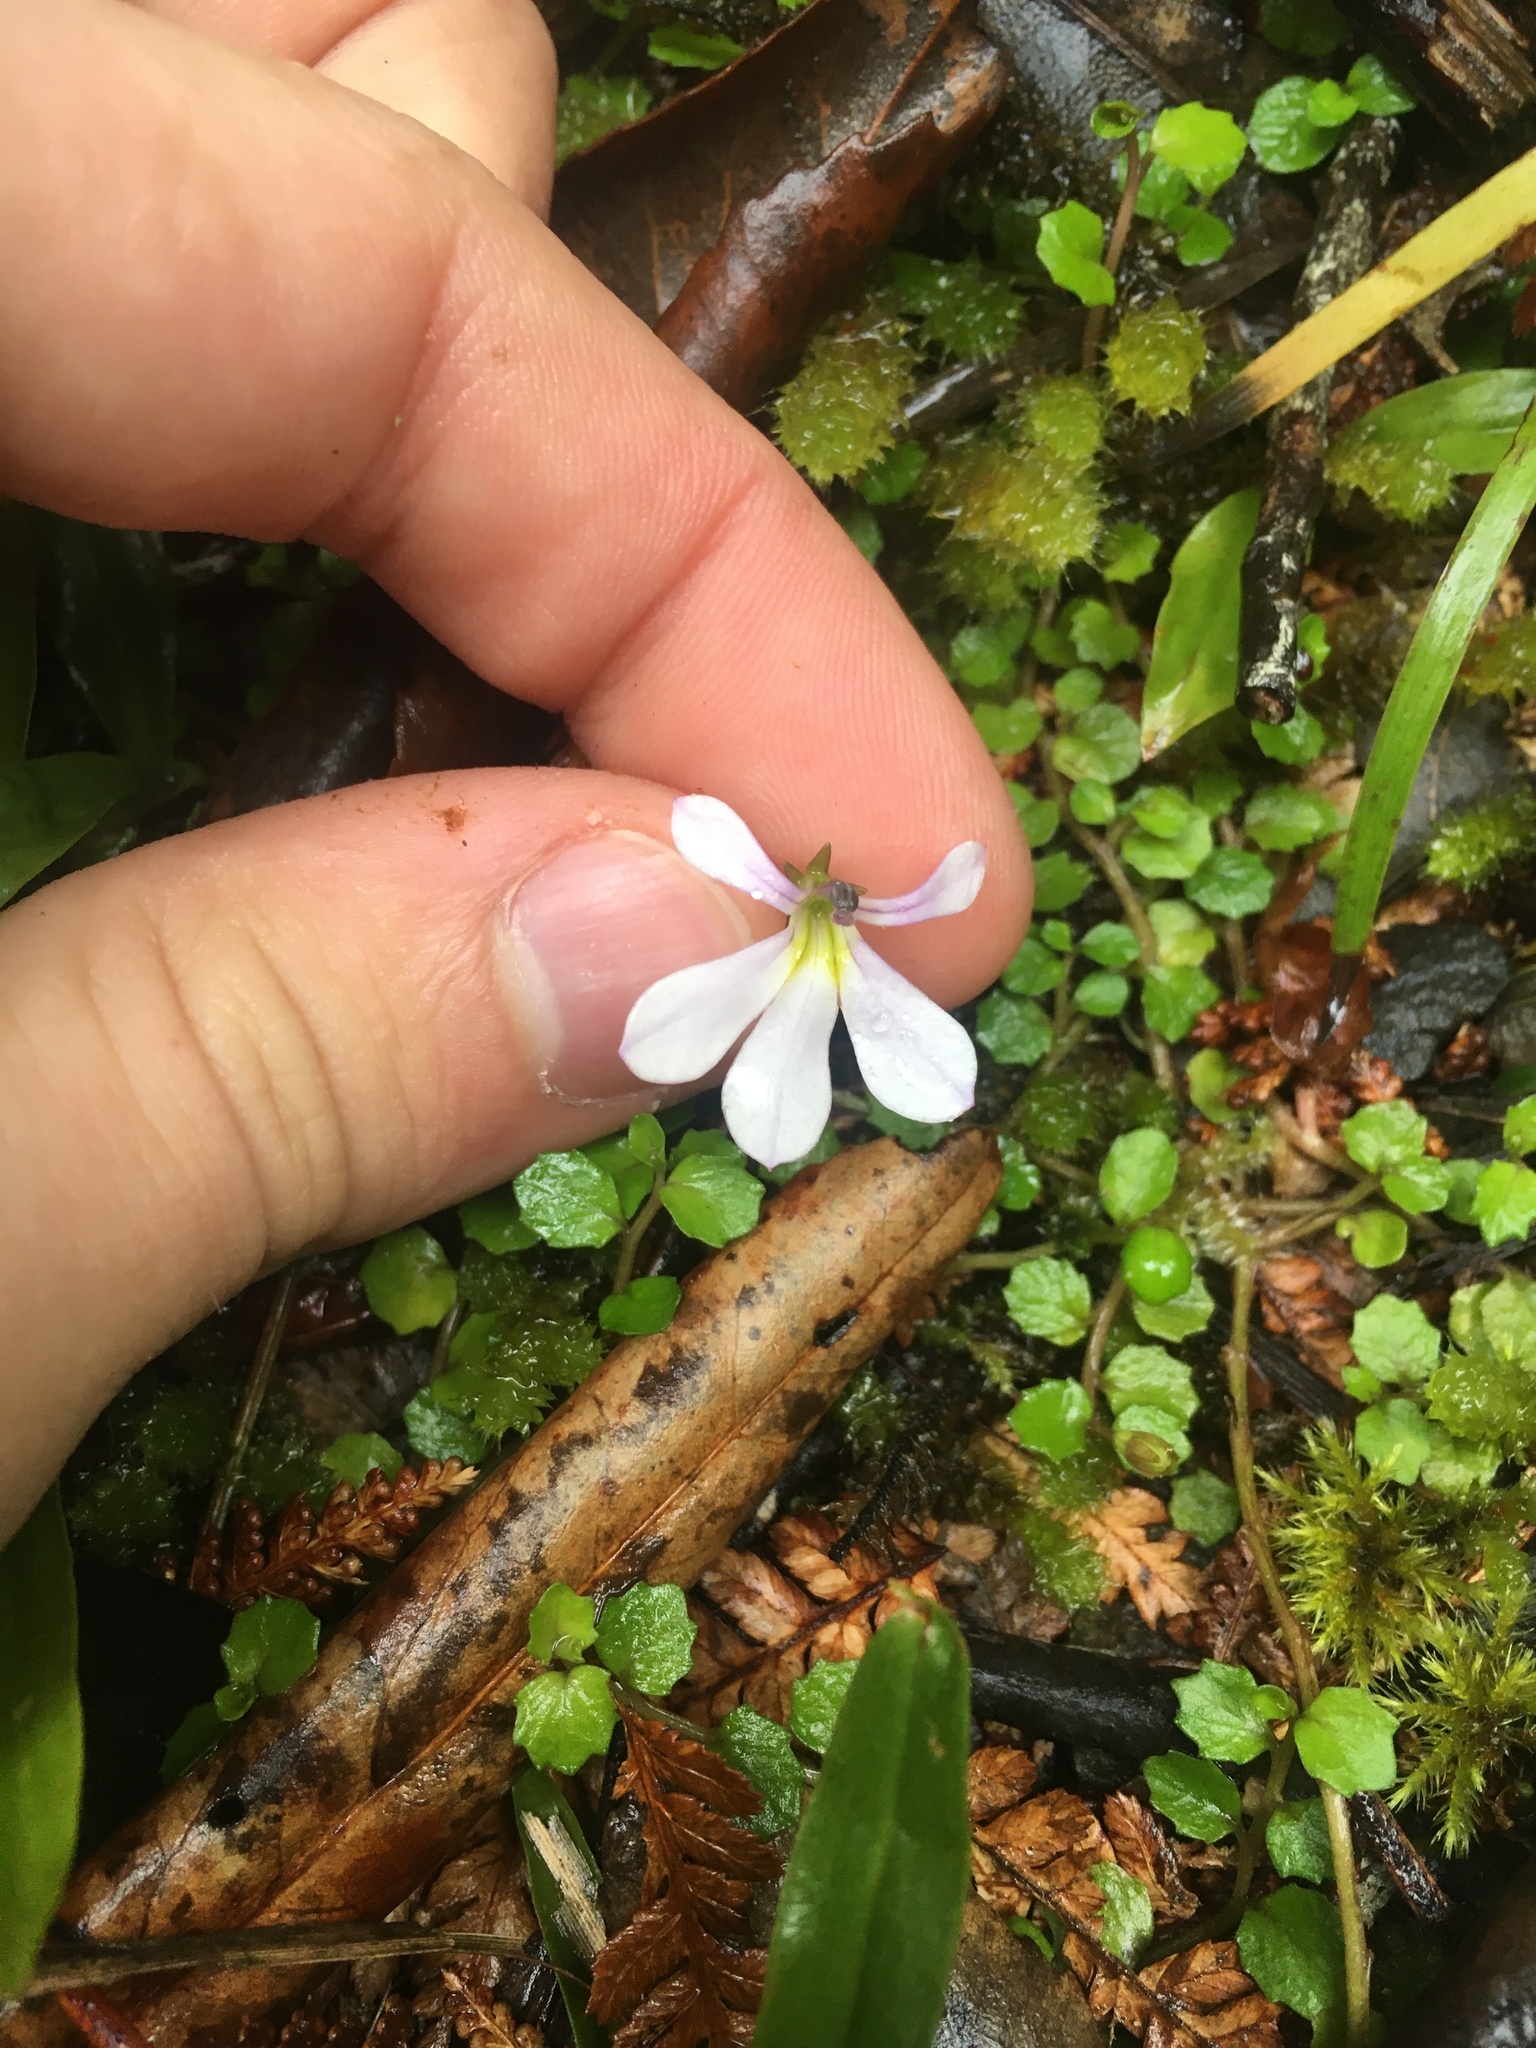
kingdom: Plantae
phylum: Tracheophyta
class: Magnoliopsida
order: Asterales
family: Campanulaceae
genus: Lobelia
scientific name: Lobelia angulata
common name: Lawn lobelia
